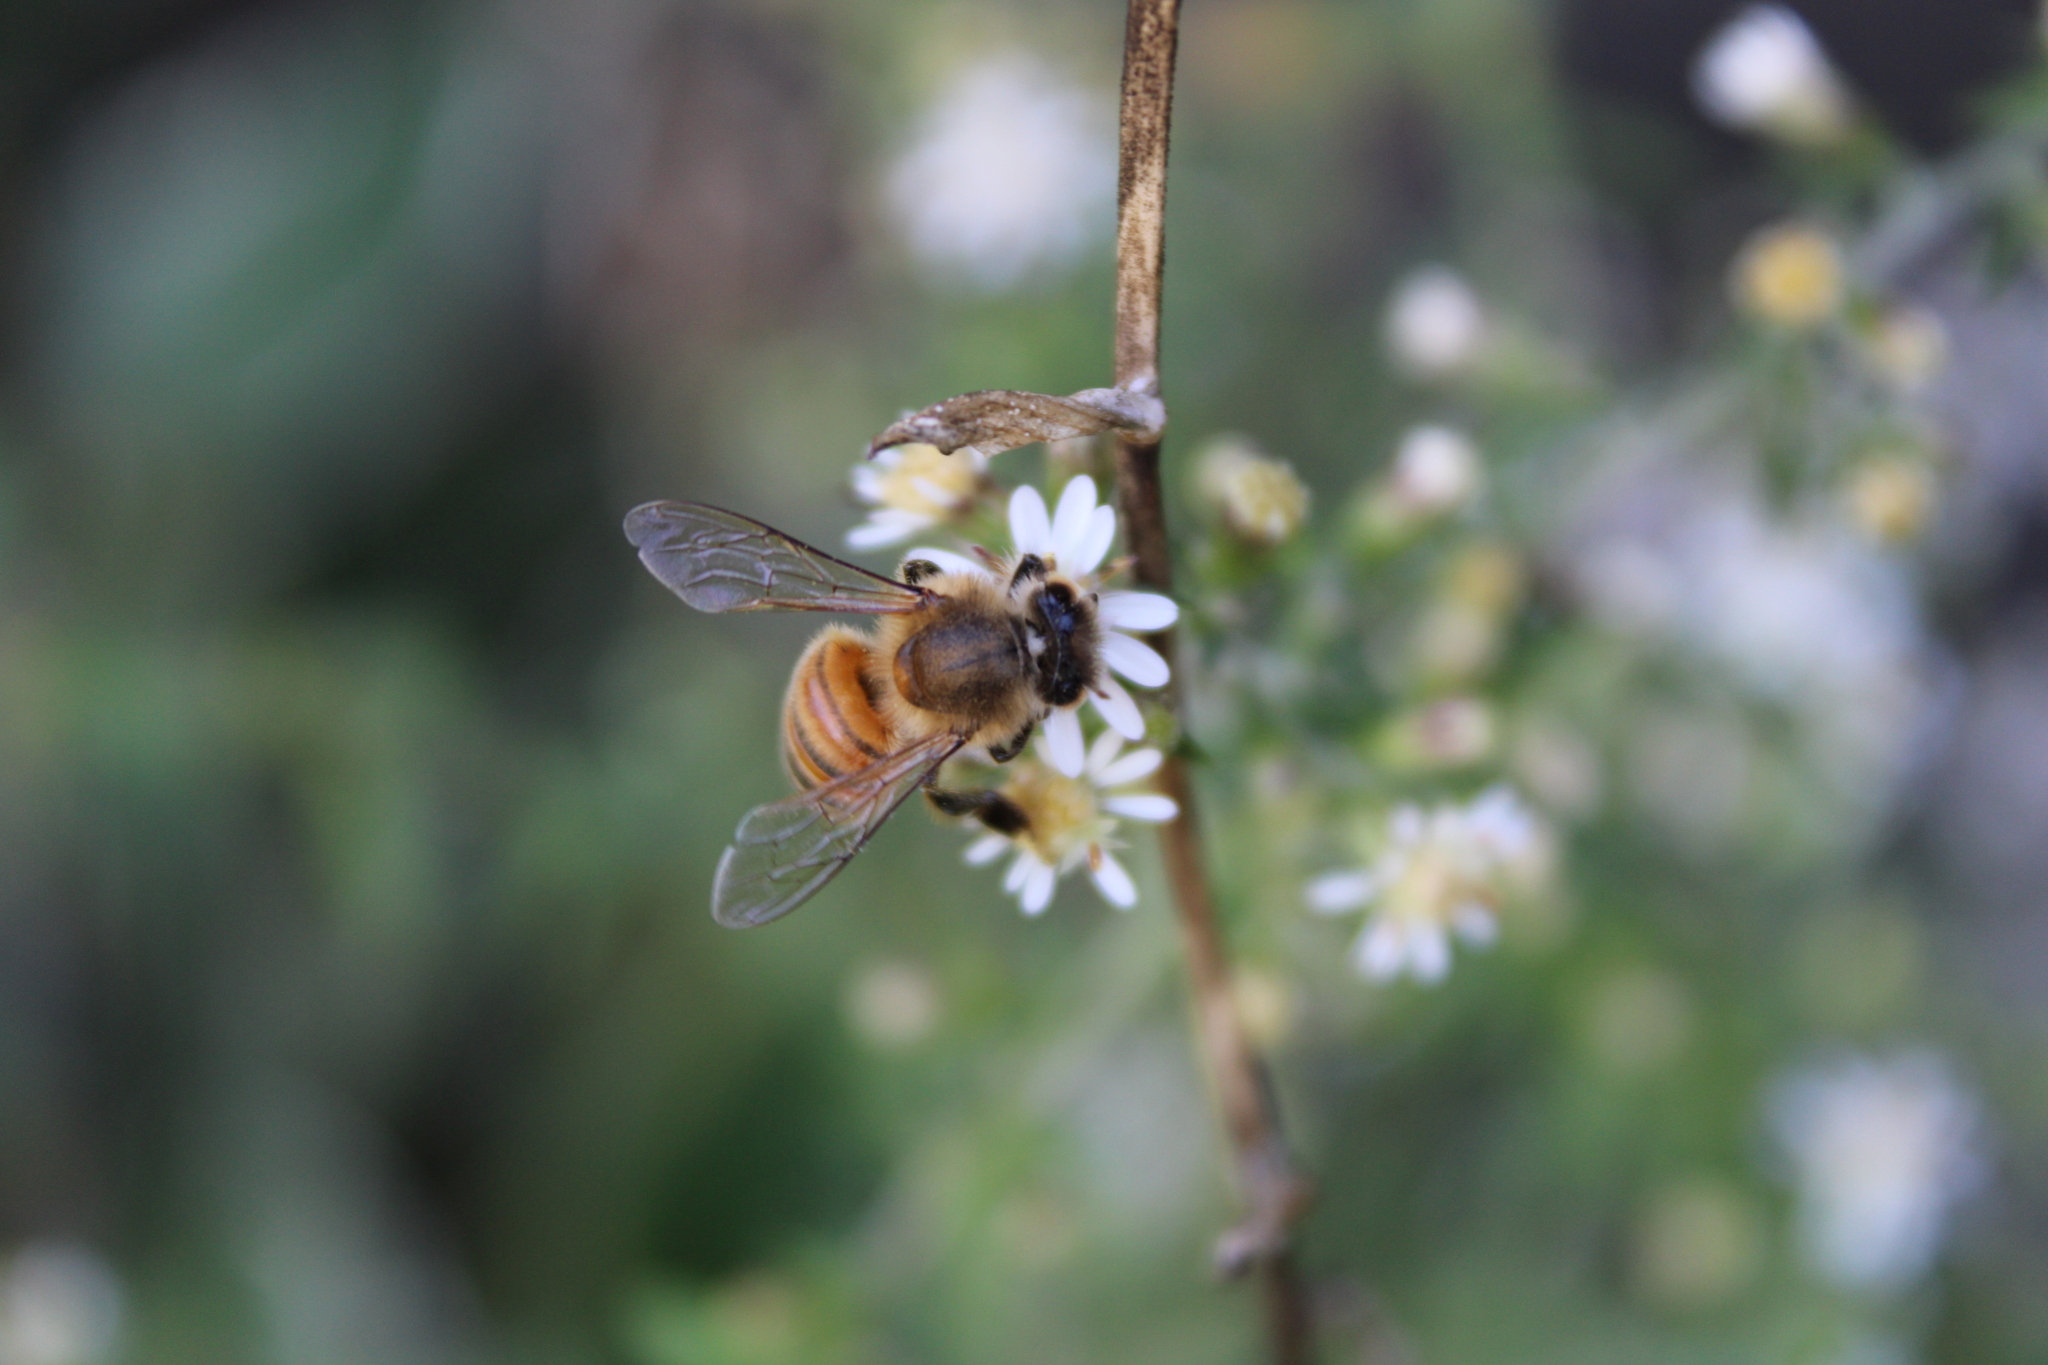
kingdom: Animalia
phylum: Arthropoda
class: Insecta
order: Hymenoptera
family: Apidae
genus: Apis
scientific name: Apis mellifera
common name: Honey bee
